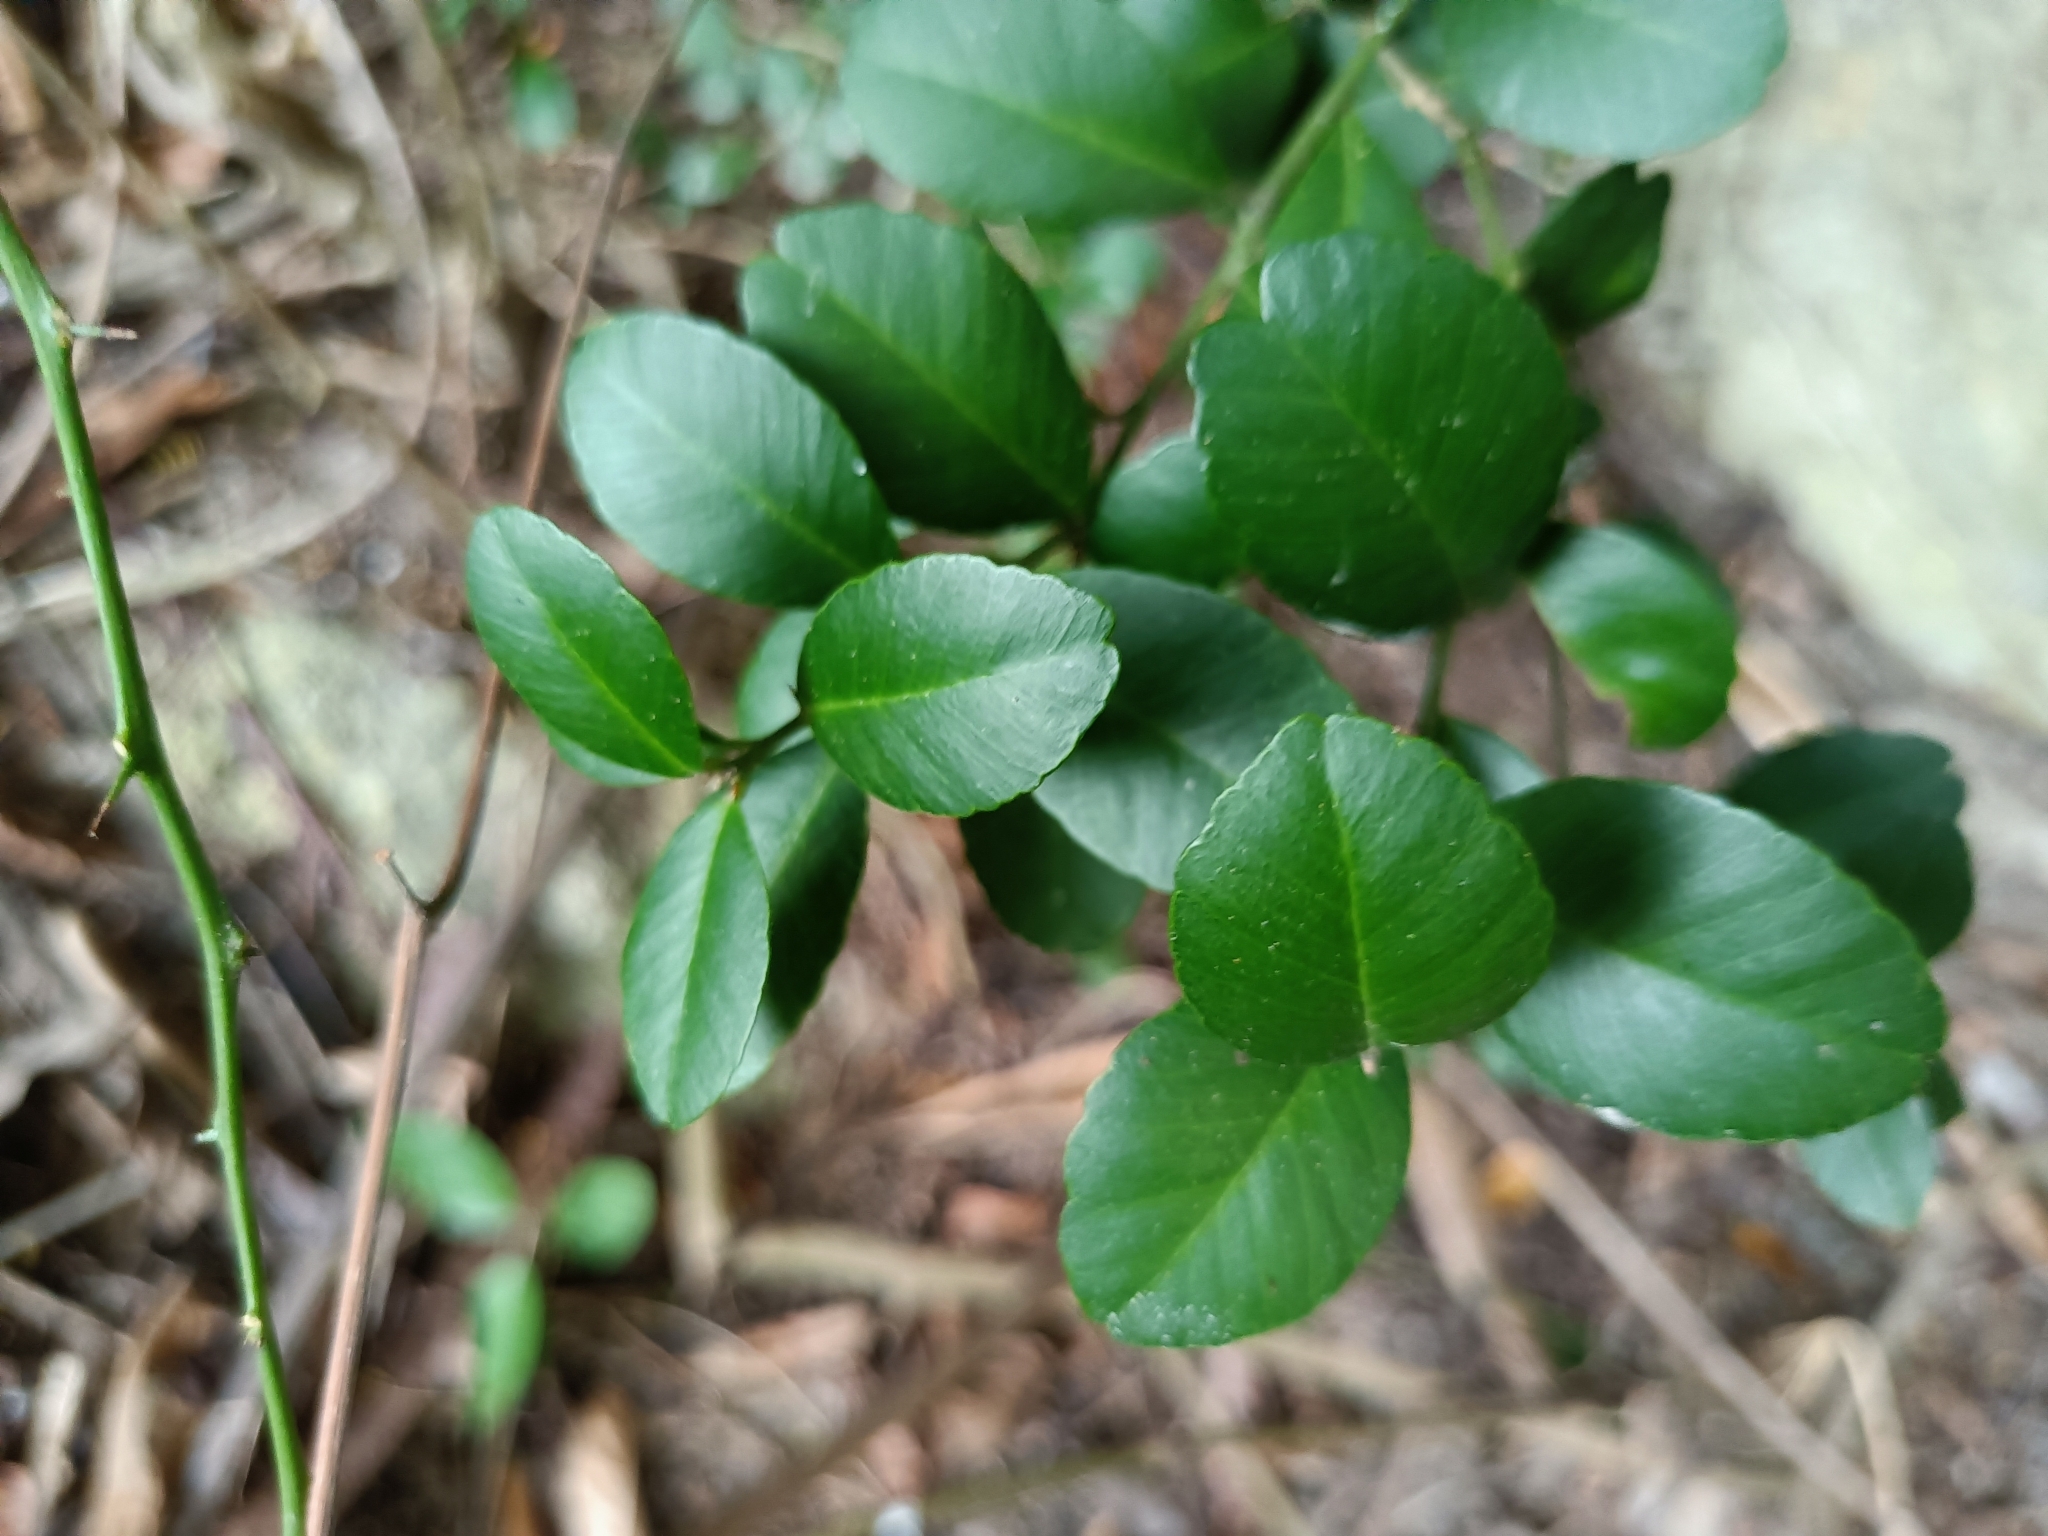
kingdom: Plantae
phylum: Tracheophyta
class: Magnoliopsida
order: Sapindales
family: Rutaceae
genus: Atalantia
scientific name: Atalantia buxifolia
